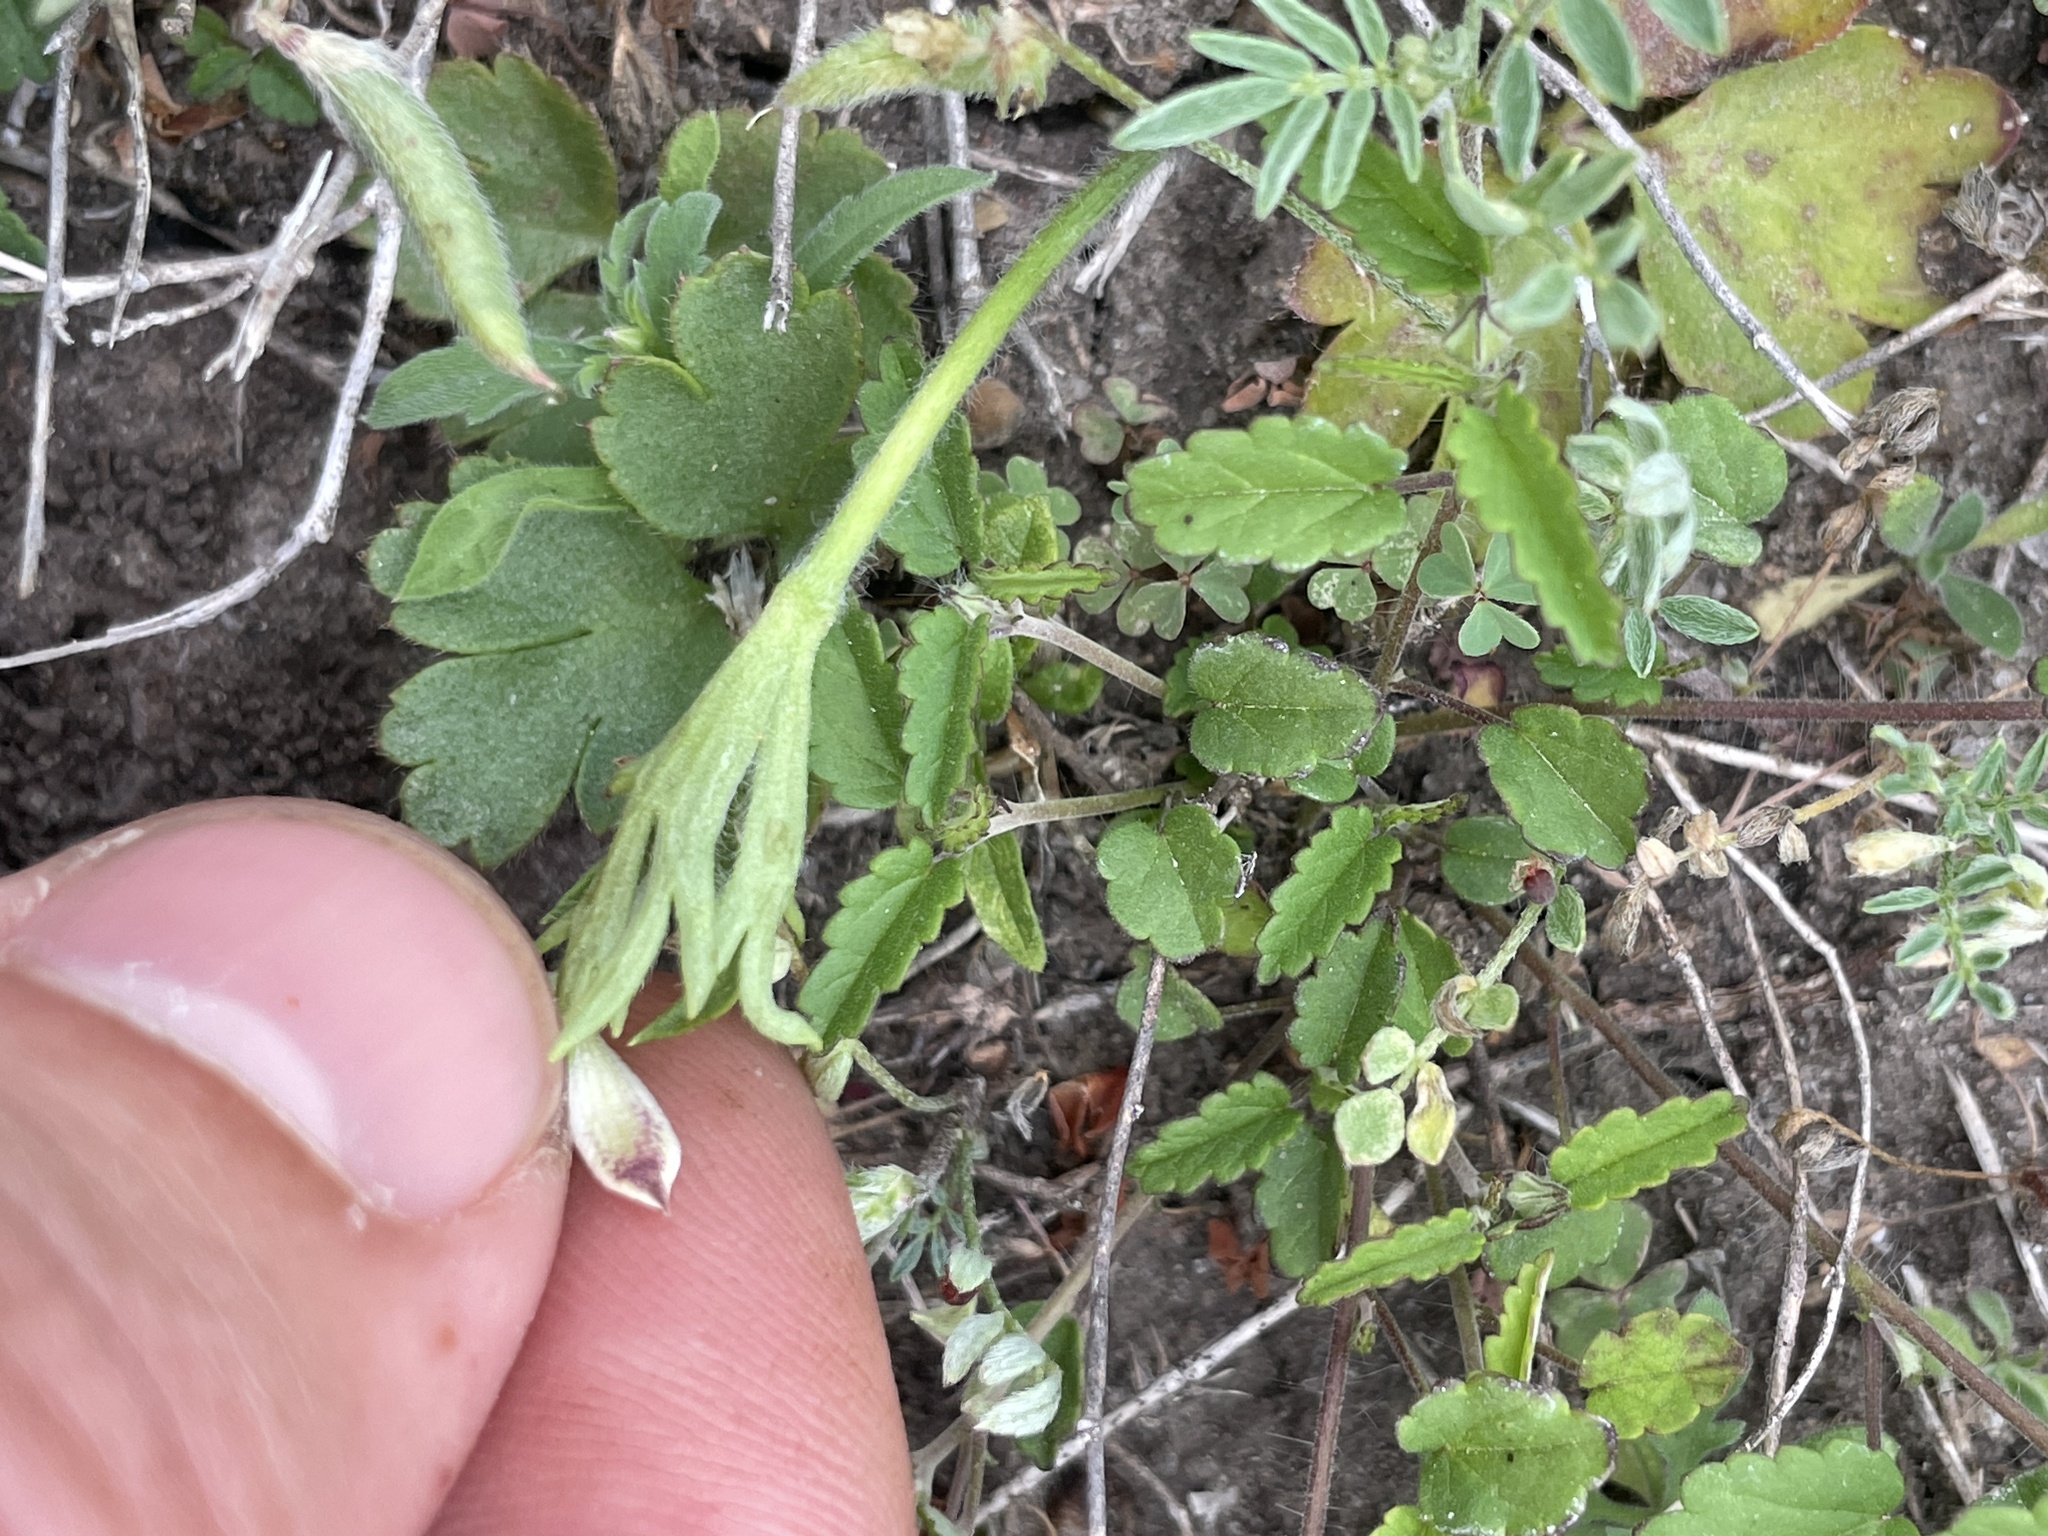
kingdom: Plantae
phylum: Tracheophyta
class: Magnoliopsida
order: Ranunculales
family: Ranunculaceae
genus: Anemone
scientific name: Anemone berlandieri
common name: Ten-petal anemone
